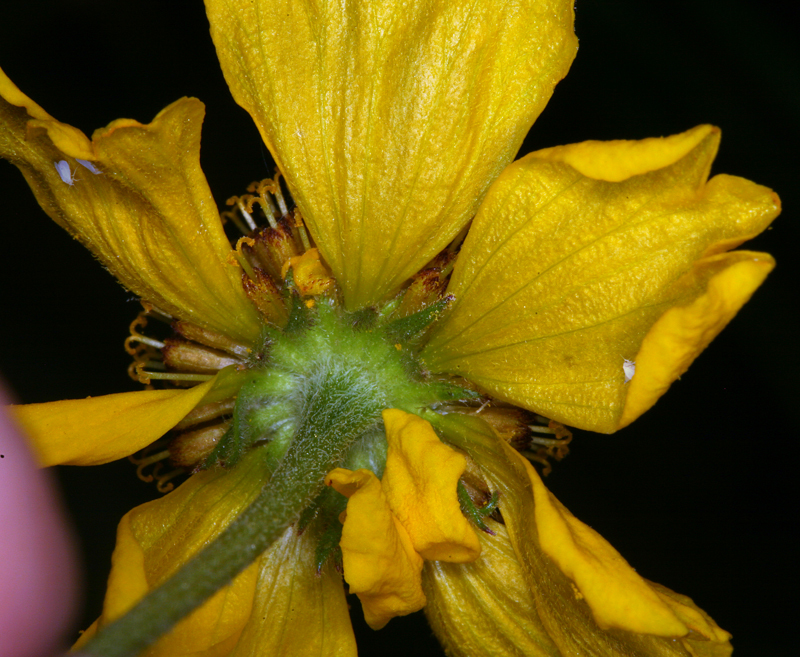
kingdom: Plantae
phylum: Tracheophyta
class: Magnoliopsida
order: Asterales
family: Asteraceae
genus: Helenium
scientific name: Helenium bigelovii
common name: Bigelow's sneezeweed
